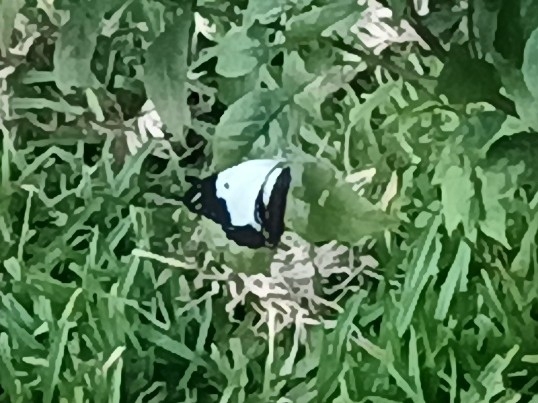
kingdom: Animalia
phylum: Arthropoda
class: Insecta
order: Lepidoptera
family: Pieridae
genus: Belenois
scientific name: Belenois java
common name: Caper white
